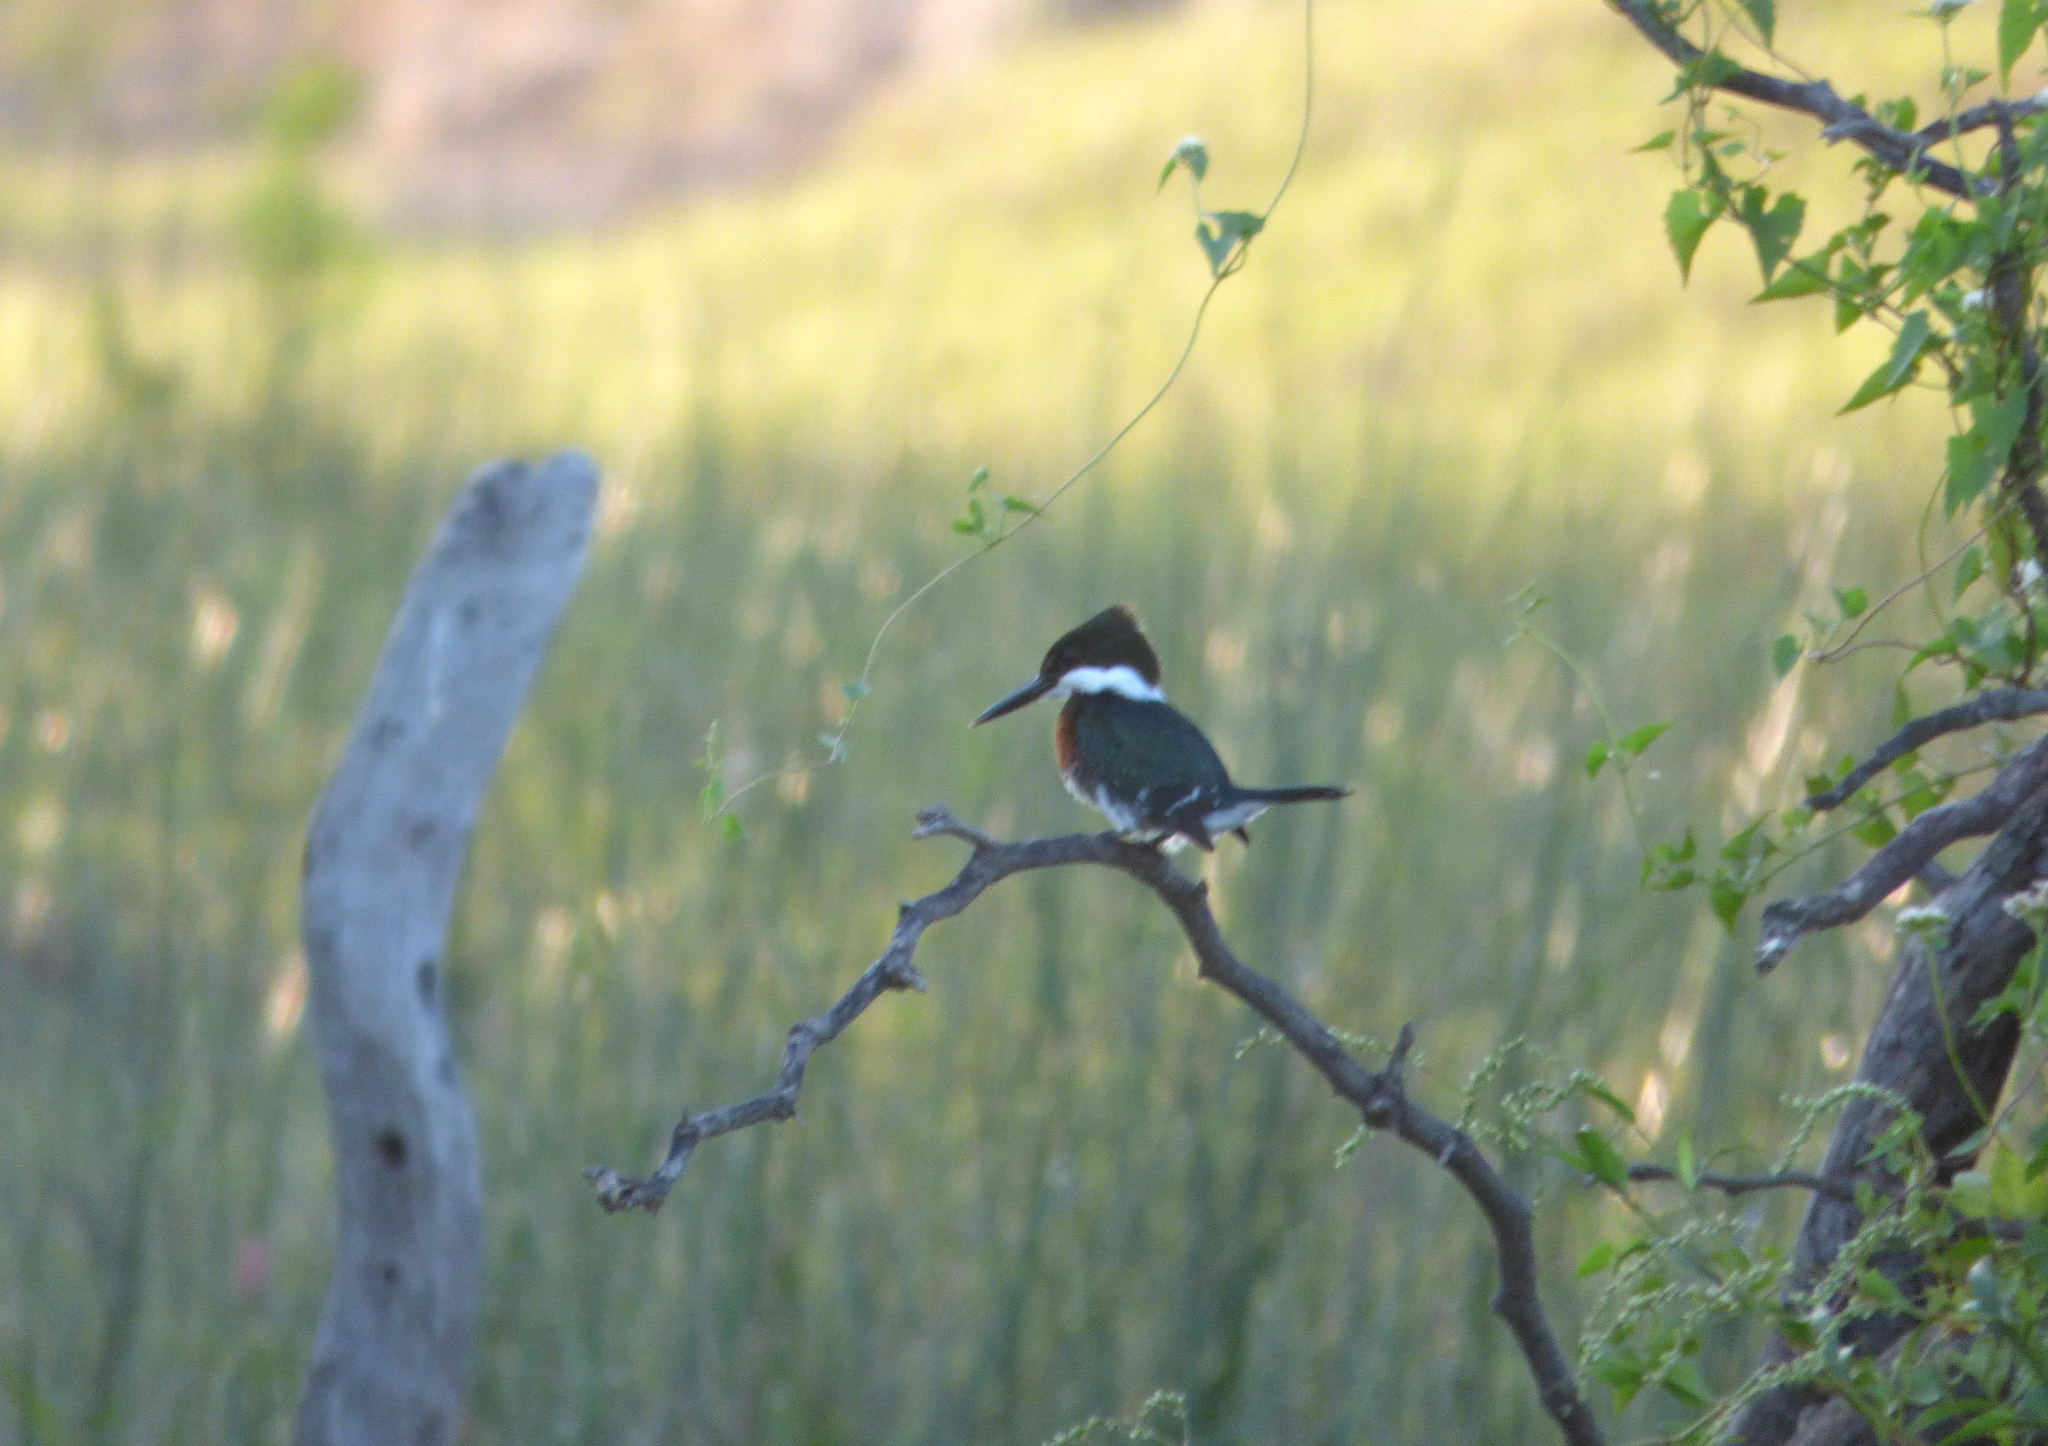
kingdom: Animalia
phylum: Chordata
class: Aves
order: Coraciiformes
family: Alcedinidae
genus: Chloroceryle
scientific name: Chloroceryle americana
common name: Green kingfisher
